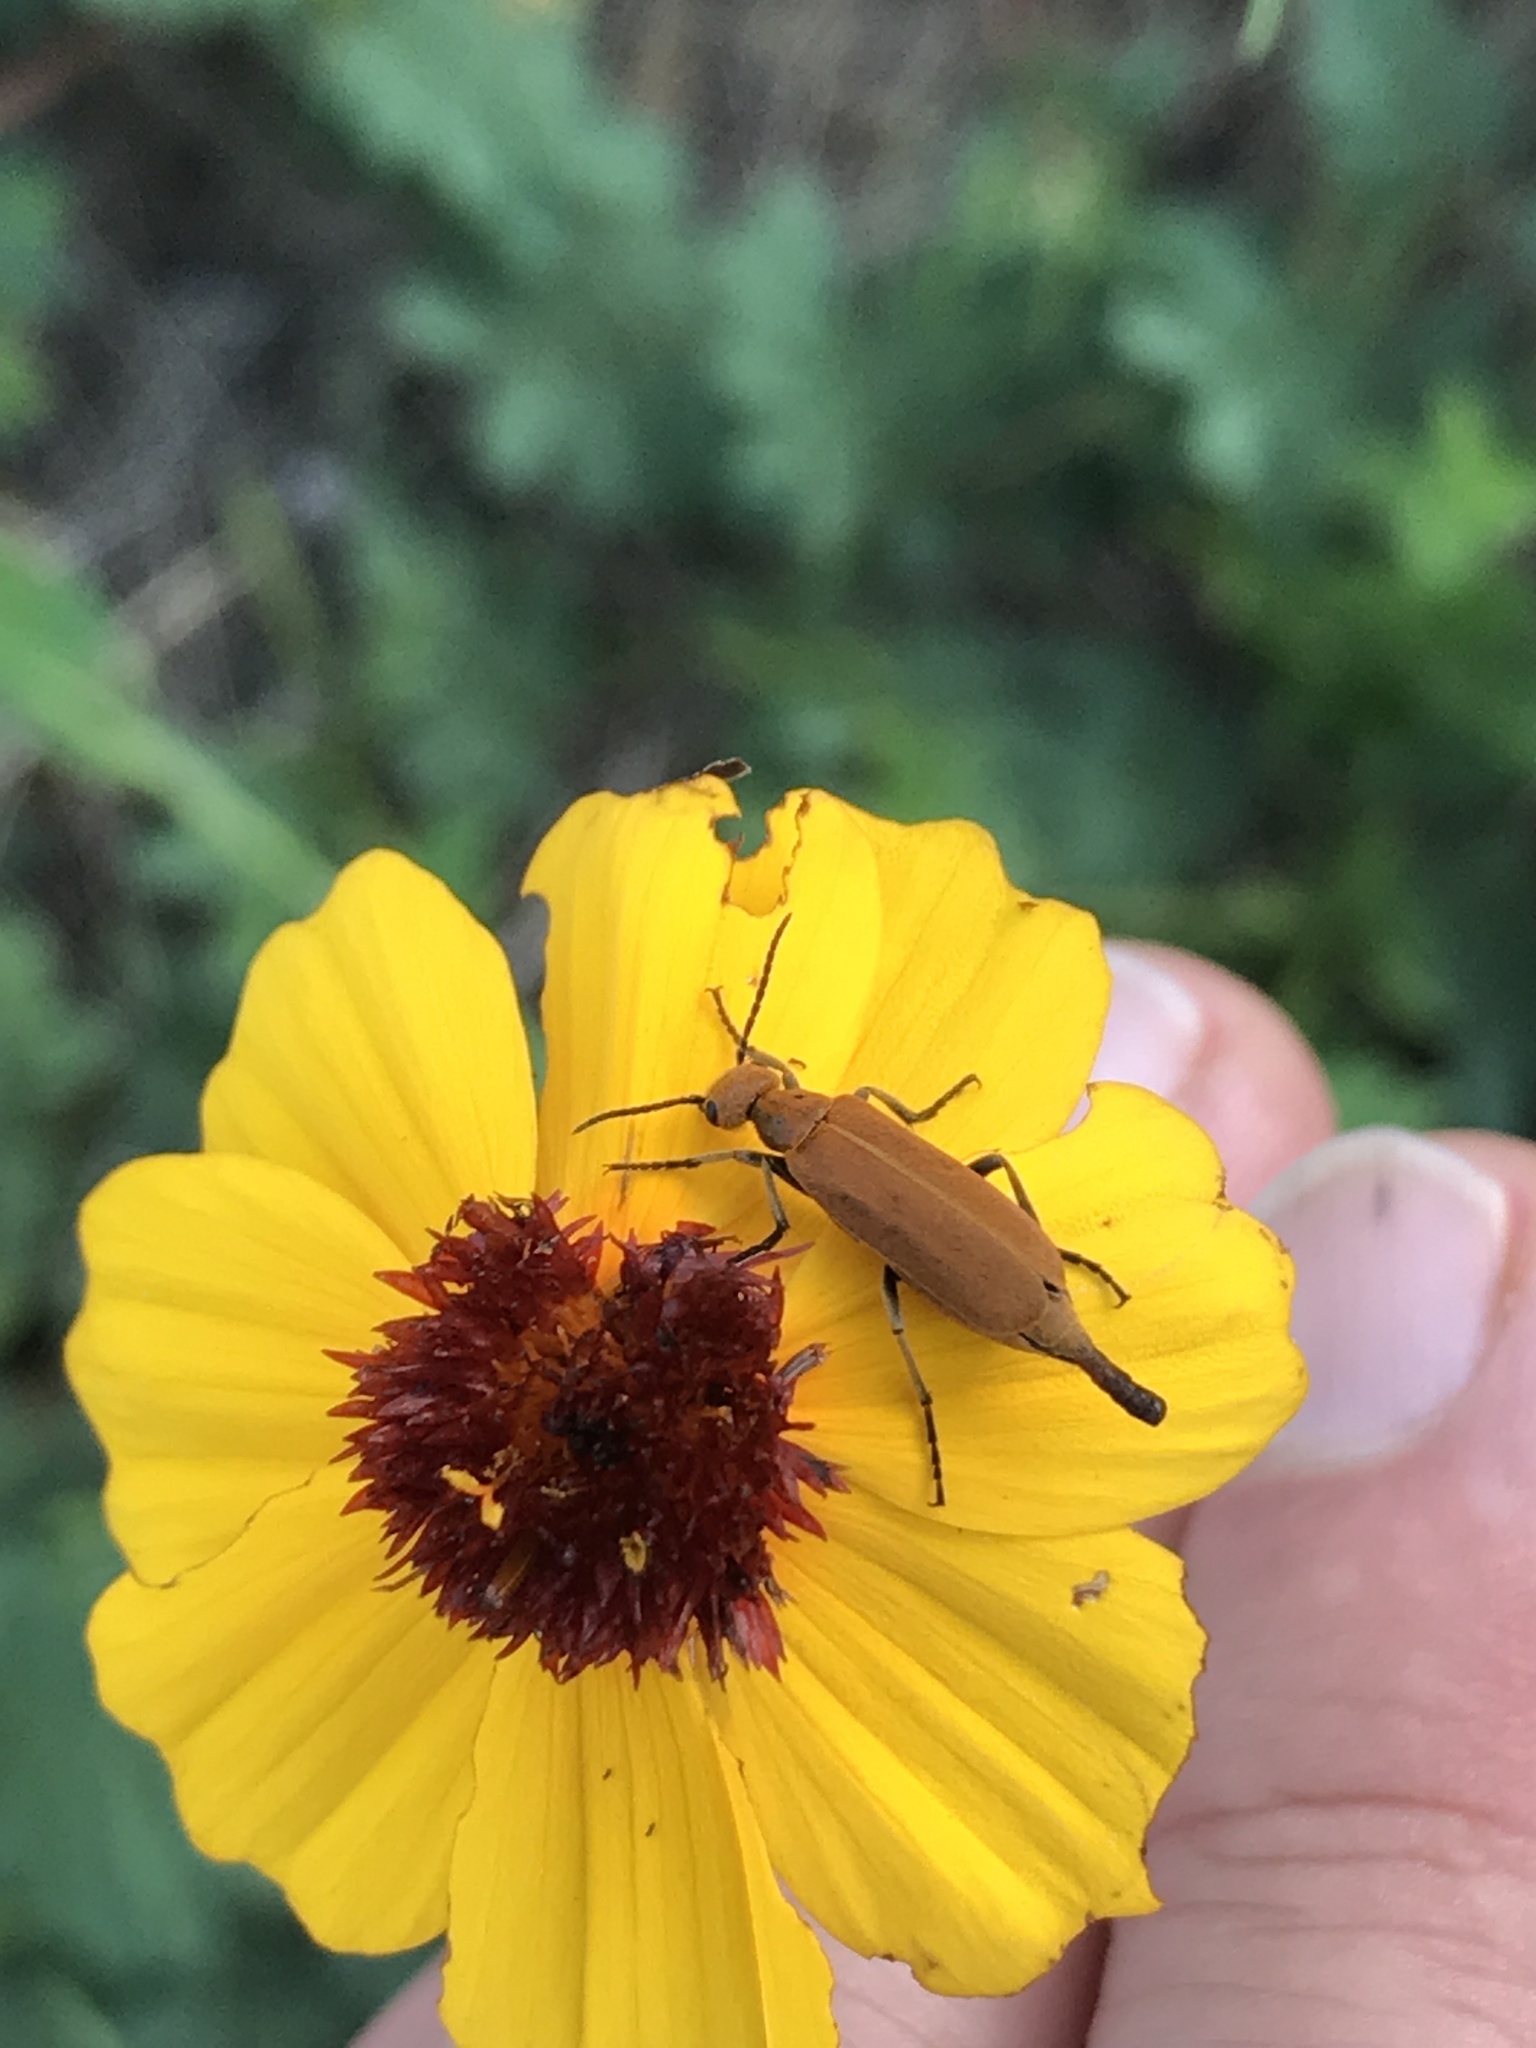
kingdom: Animalia
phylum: Arthropoda
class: Insecta
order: Coleoptera
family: Meloidae
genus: Epicauta
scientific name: Epicauta callosa
